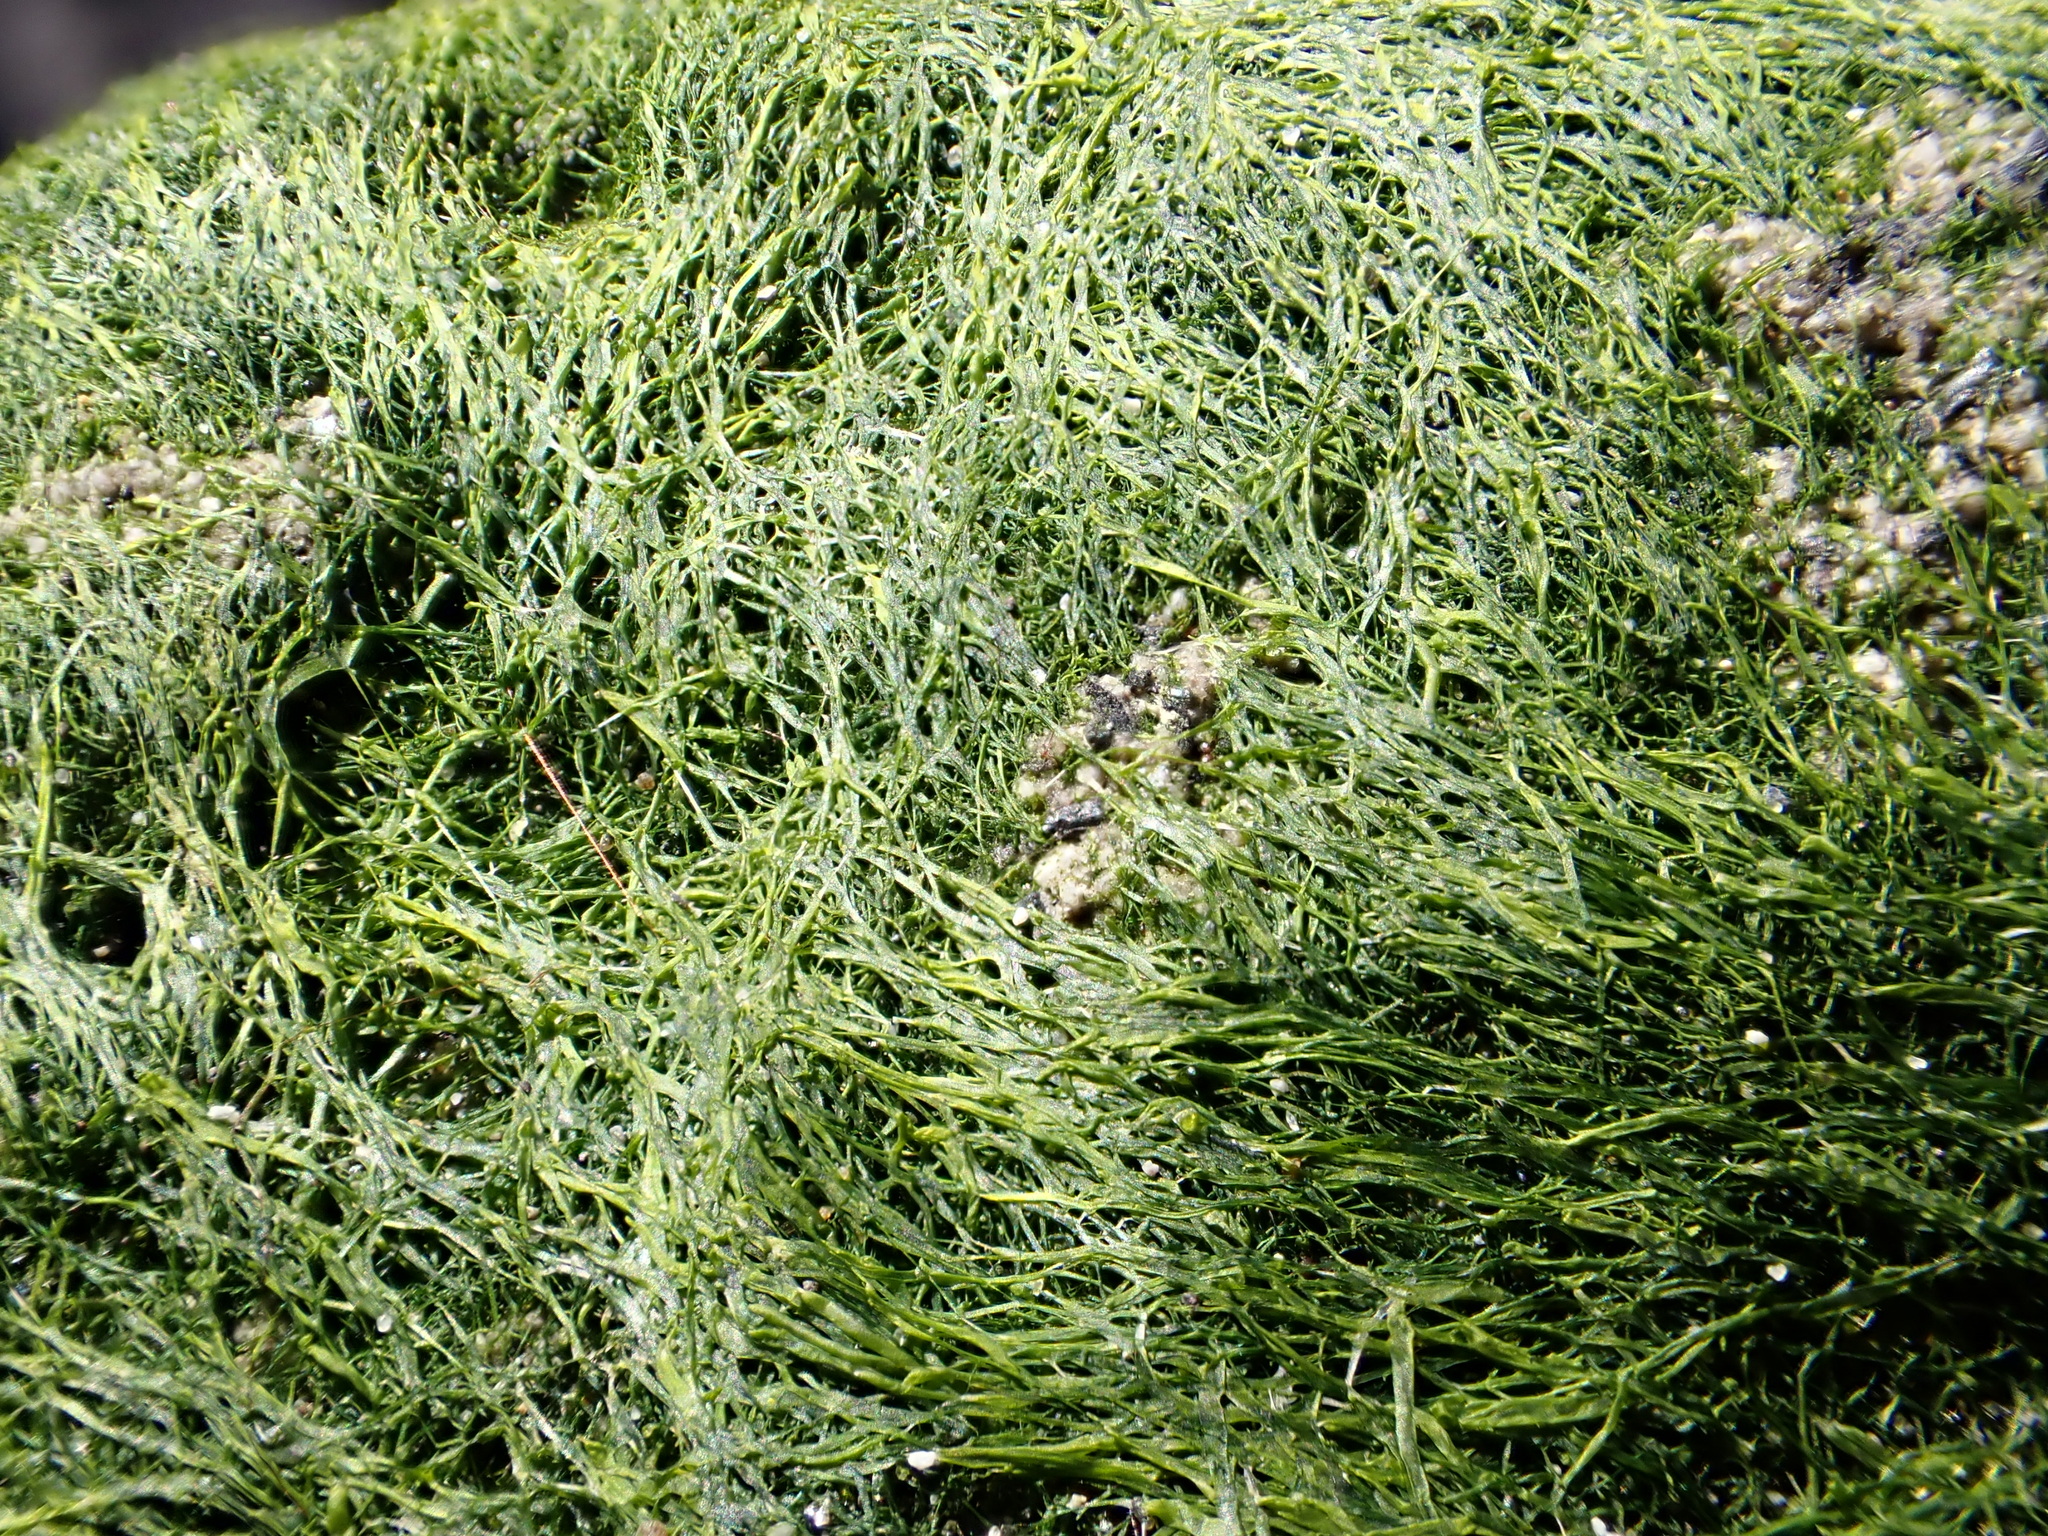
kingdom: Plantae
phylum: Chlorophyta
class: Ulvophyceae
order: Ulvales
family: Ulvaceae
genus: Ulva
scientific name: Ulva intestinalis
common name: Gut weed
